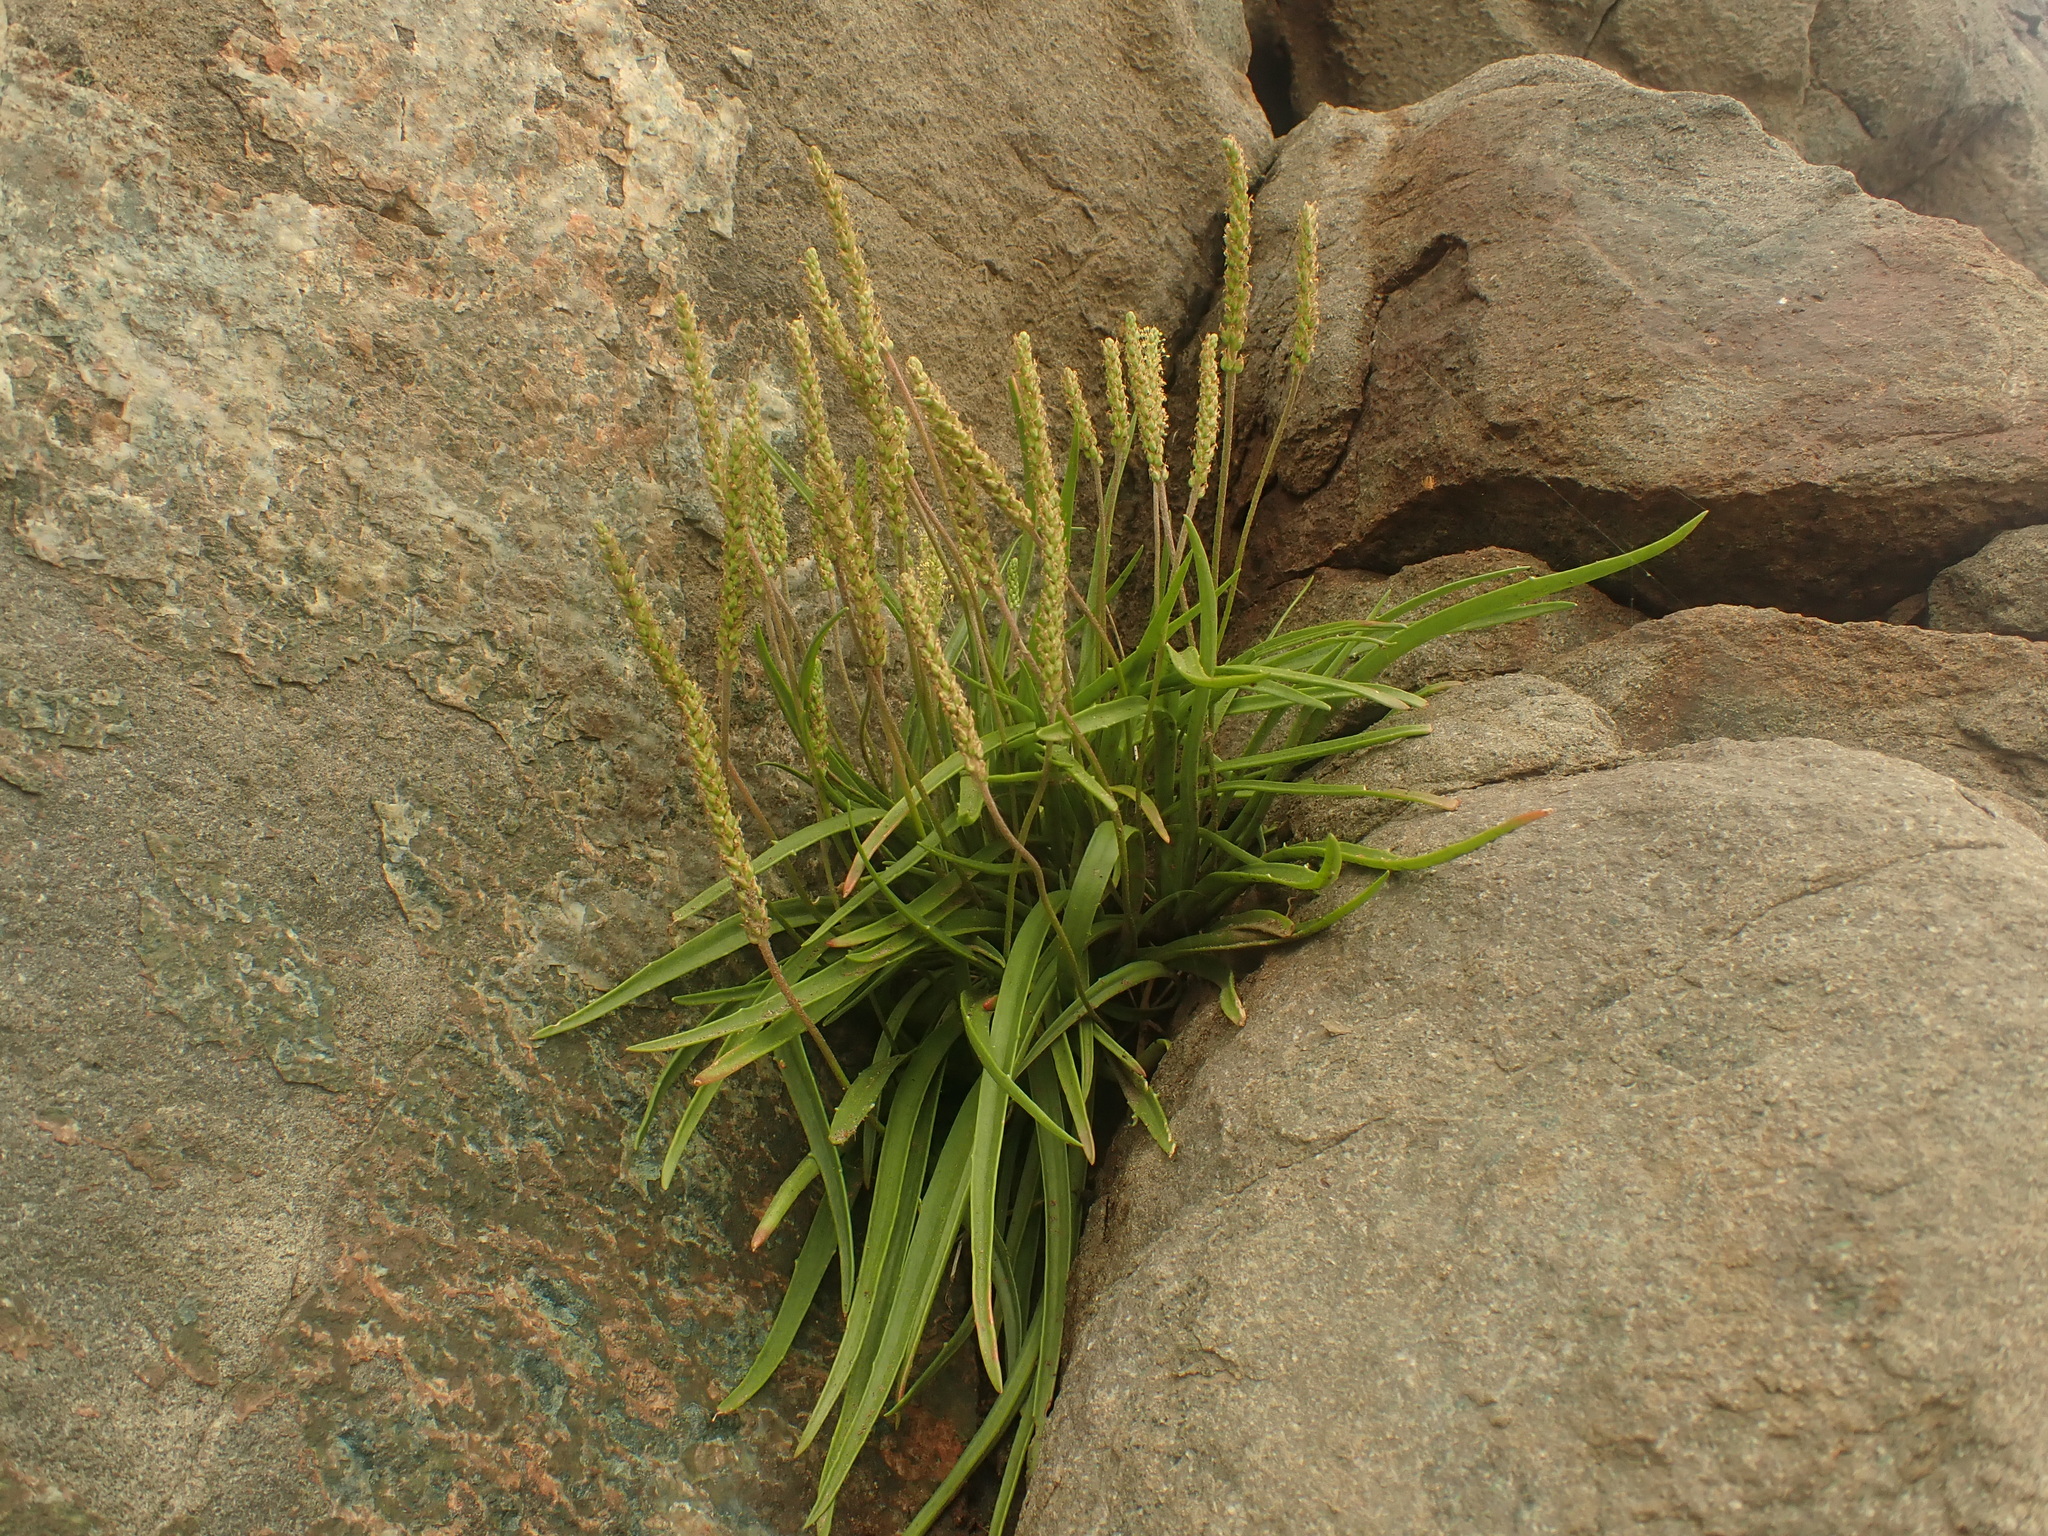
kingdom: Plantae
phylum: Tracheophyta
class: Magnoliopsida
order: Lamiales
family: Plantaginaceae
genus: Plantago
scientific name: Plantago maritima
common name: Sea plantain
